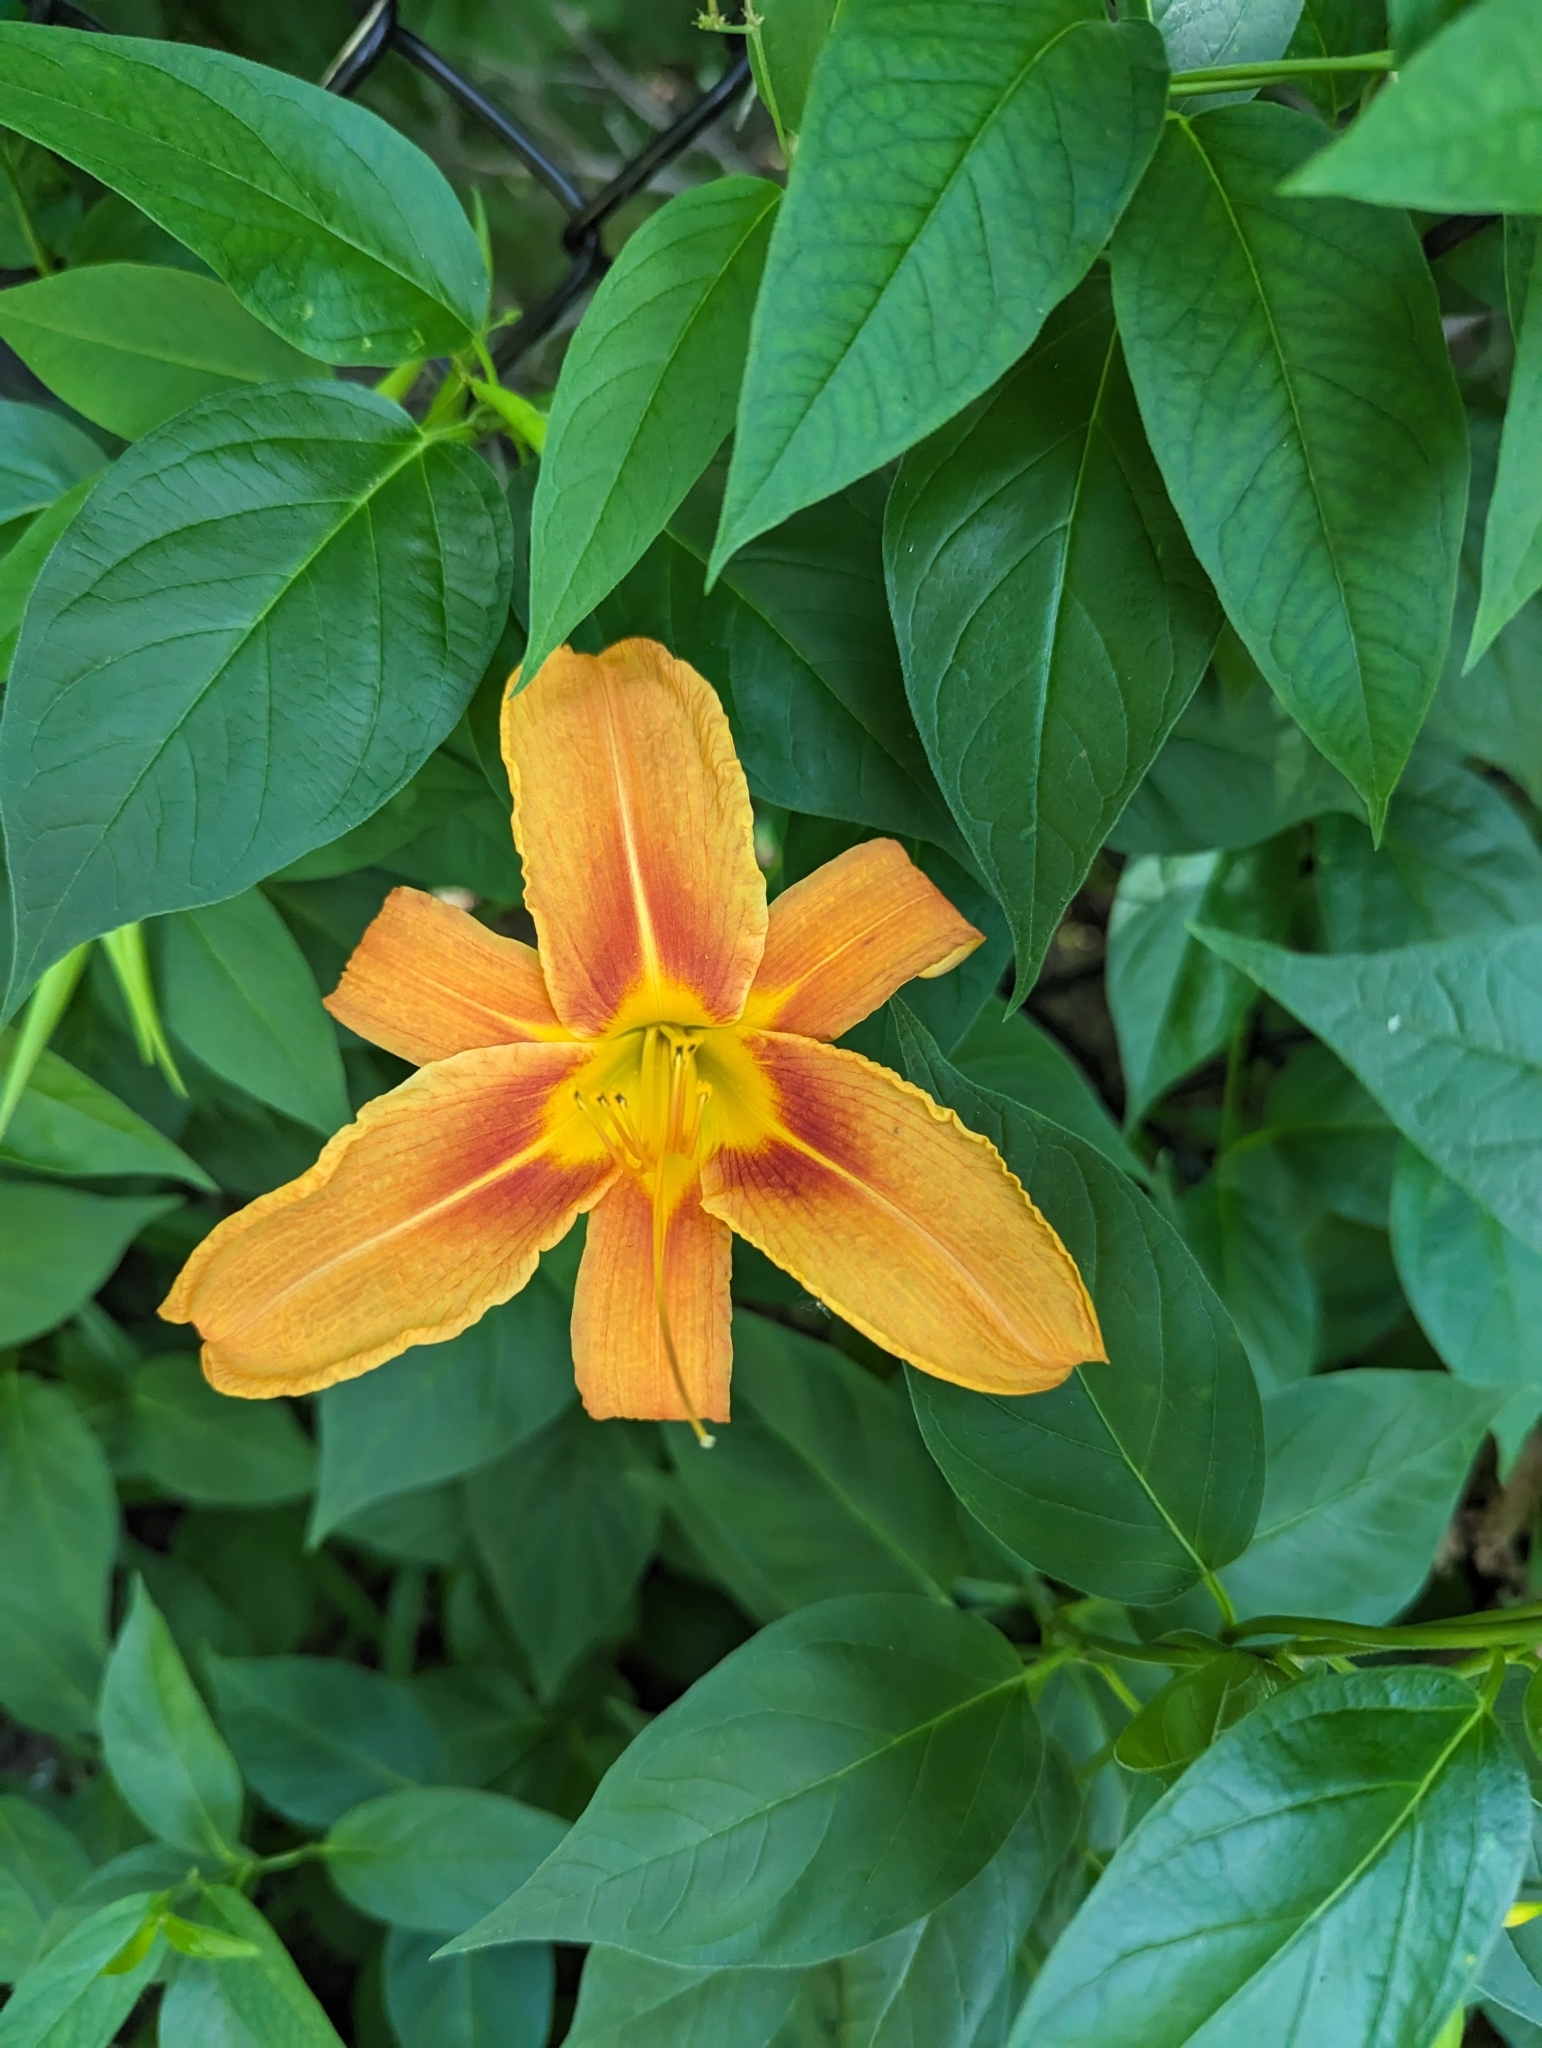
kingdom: Plantae
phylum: Tracheophyta
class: Liliopsida
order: Asparagales
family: Asphodelaceae
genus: Hemerocallis
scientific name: Hemerocallis fulva
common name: Orange day-lily
